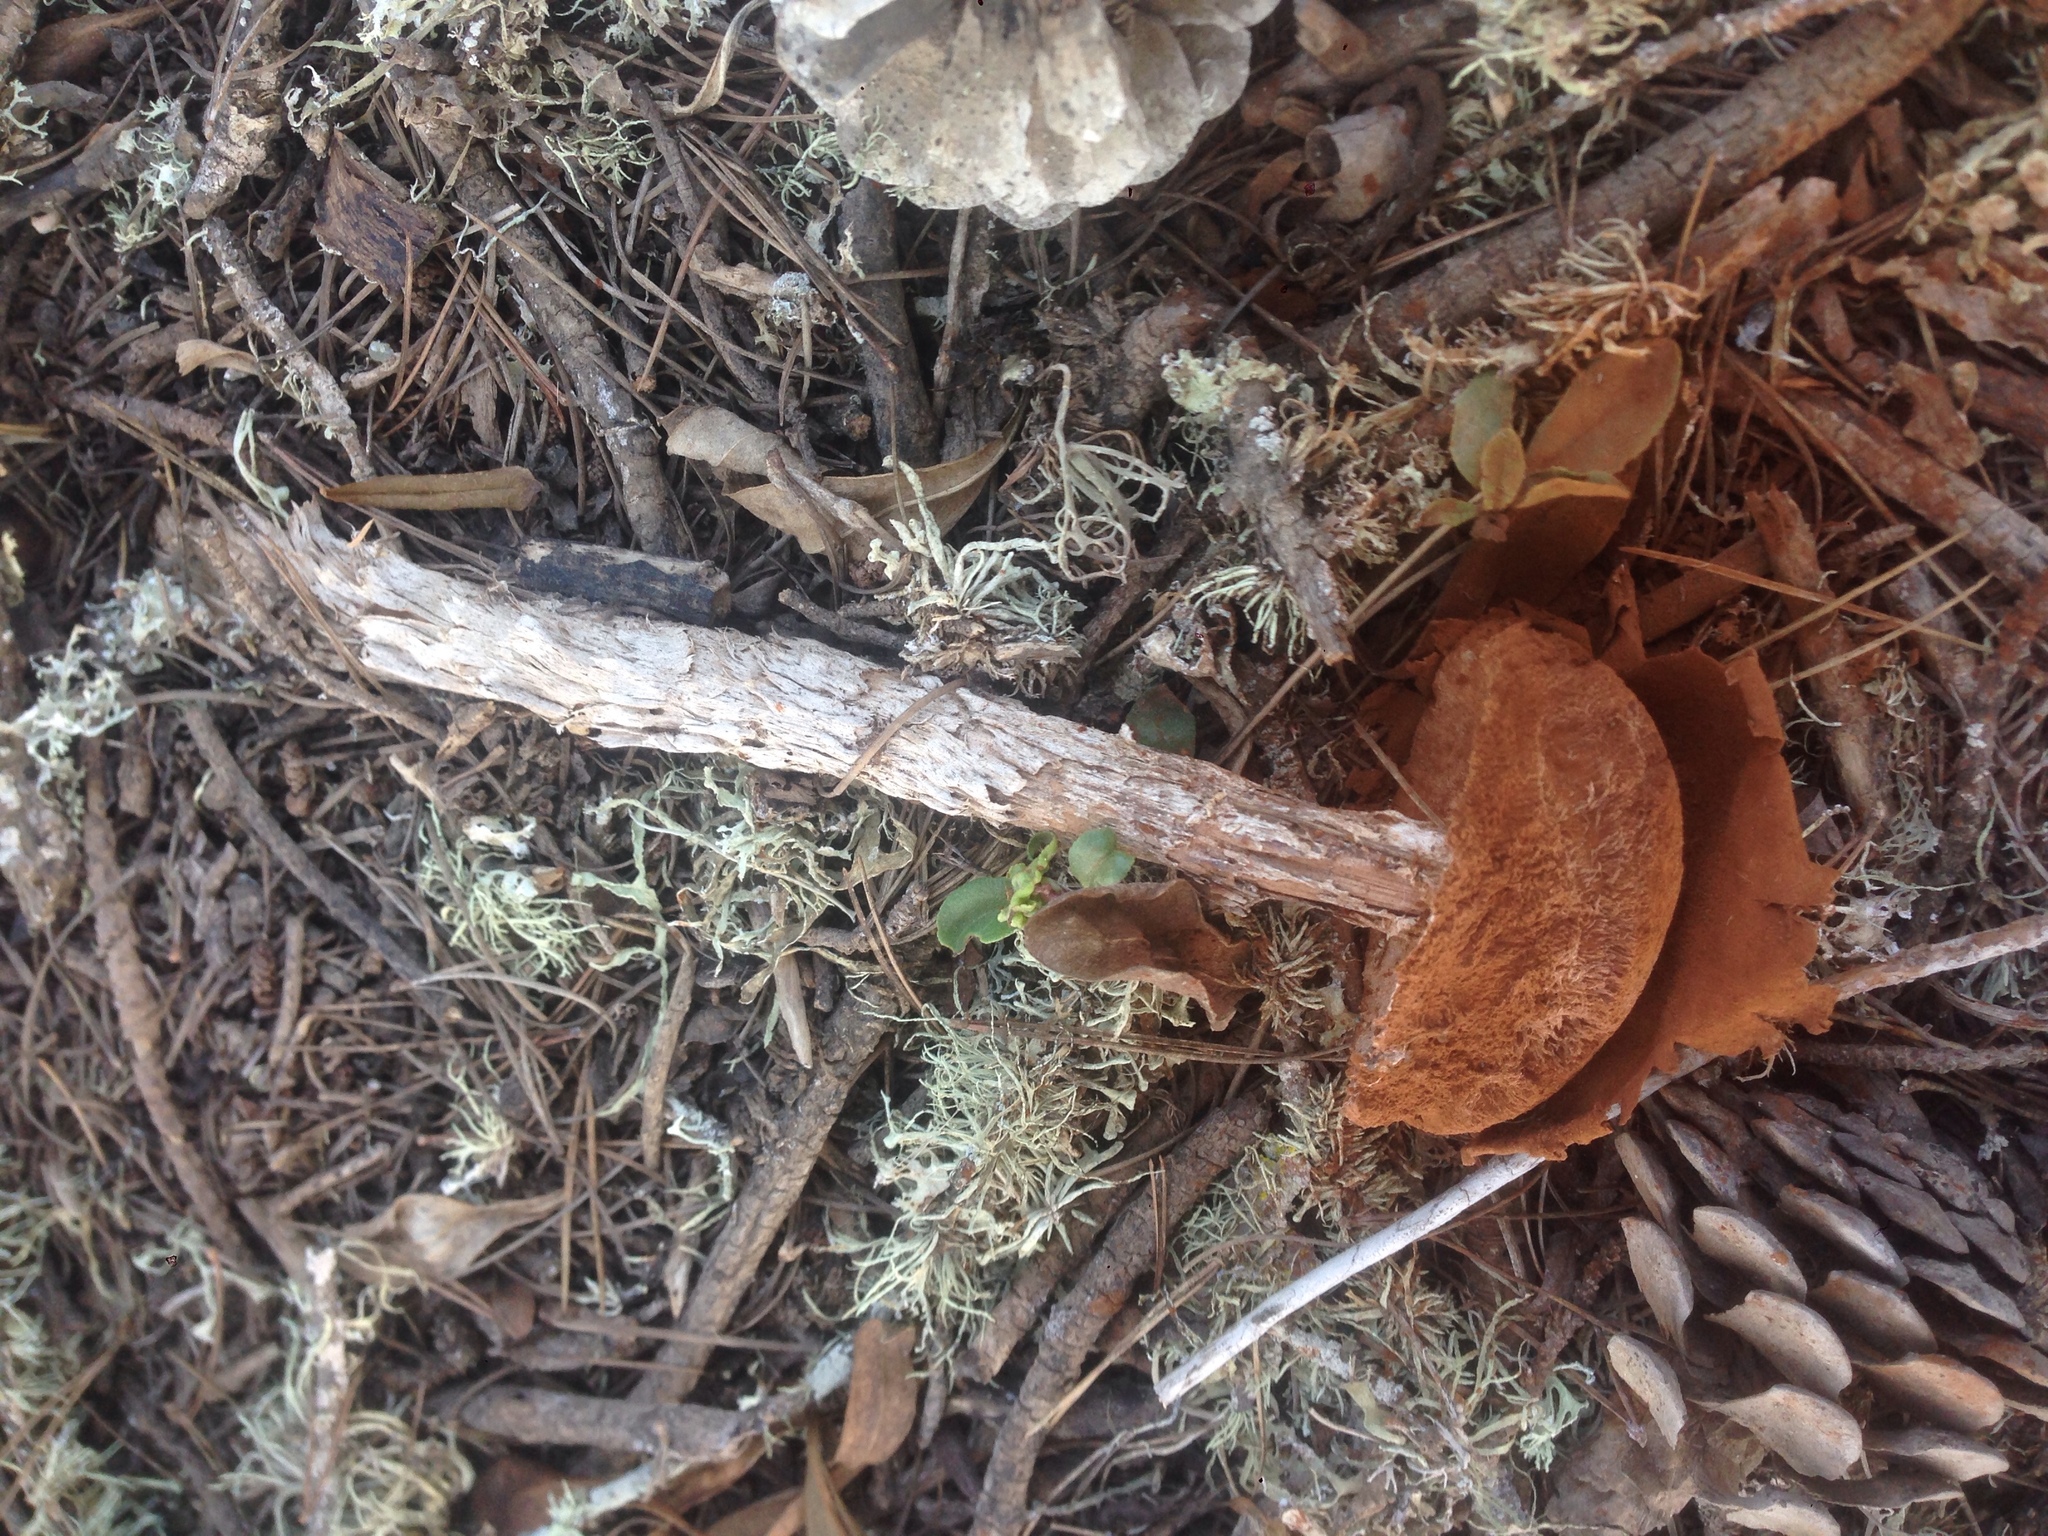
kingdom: Fungi
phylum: Basidiomycota
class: Agaricomycetes
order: Agaricales
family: Agaricaceae
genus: Battarrea
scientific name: Battarrea phalloides
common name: Sandy stiltball
